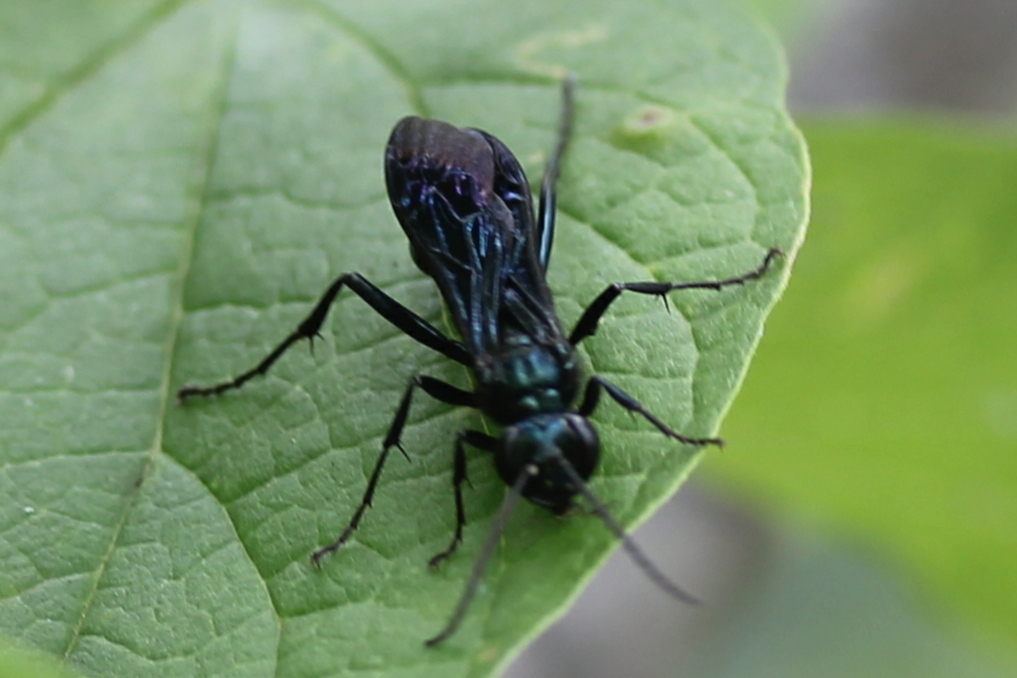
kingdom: Animalia
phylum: Arthropoda
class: Insecta
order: Hymenoptera
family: Sphecidae
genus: Chalybion
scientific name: Chalybion californicum
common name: Mud dauber
